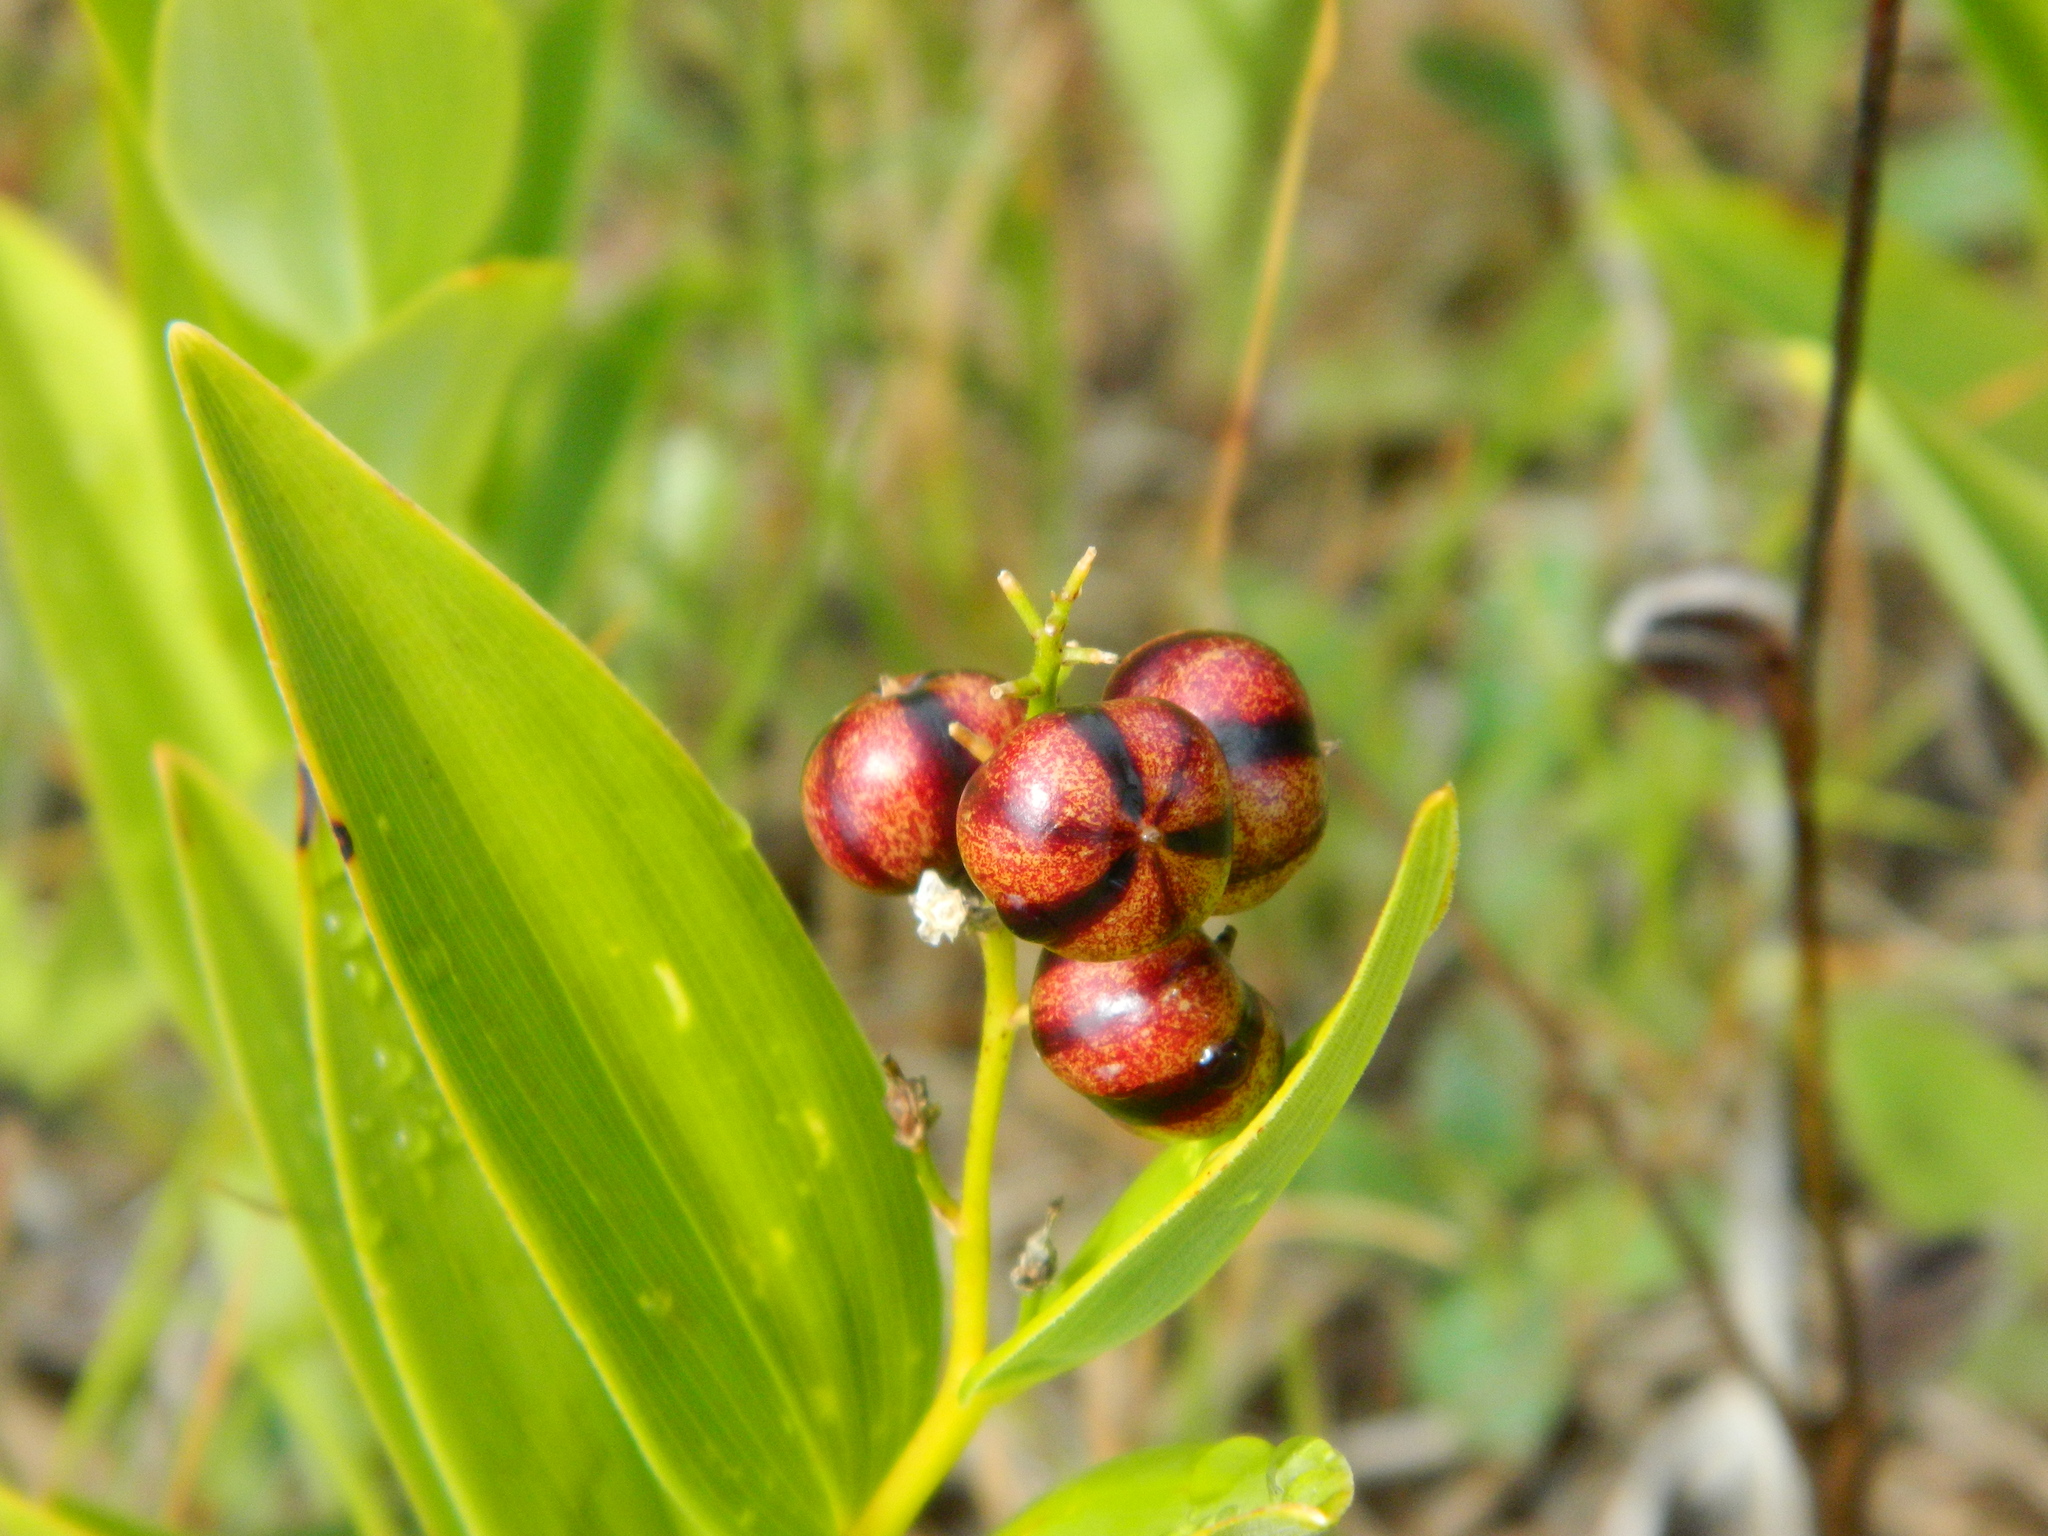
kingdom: Plantae
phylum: Tracheophyta
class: Liliopsida
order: Asparagales
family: Asparagaceae
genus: Maianthemum
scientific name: Maianthemum stellatum
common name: Little false solomon's seal
